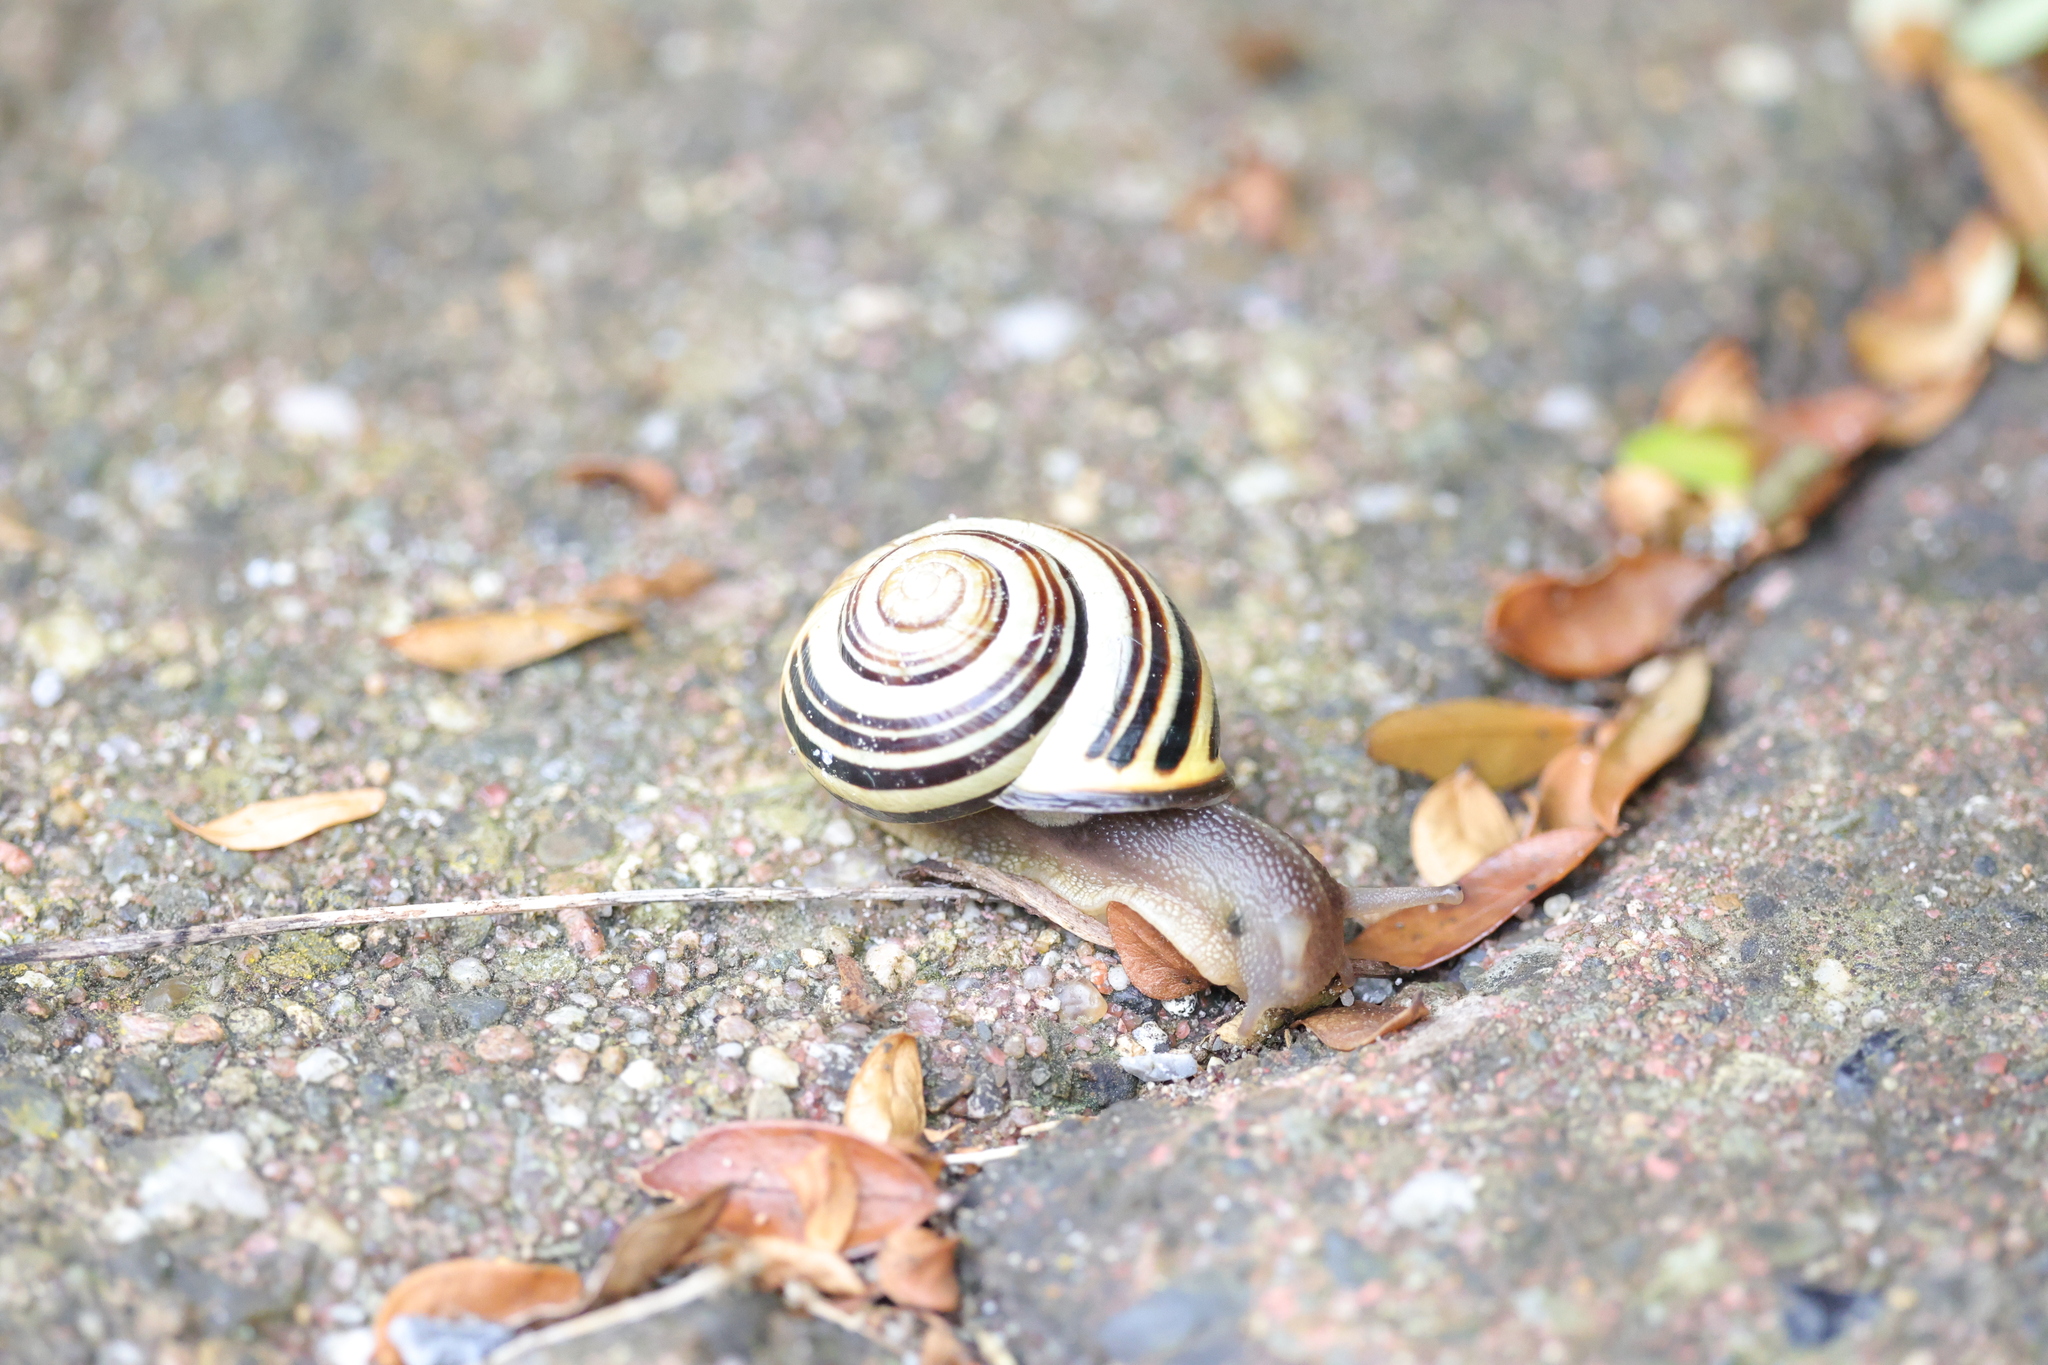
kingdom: Animalia
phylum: Mollusca
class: Gastropoda
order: Stylommatophora
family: Helicidae
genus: Cepaea
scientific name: Cepaea nemoralis
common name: Grovesnail
